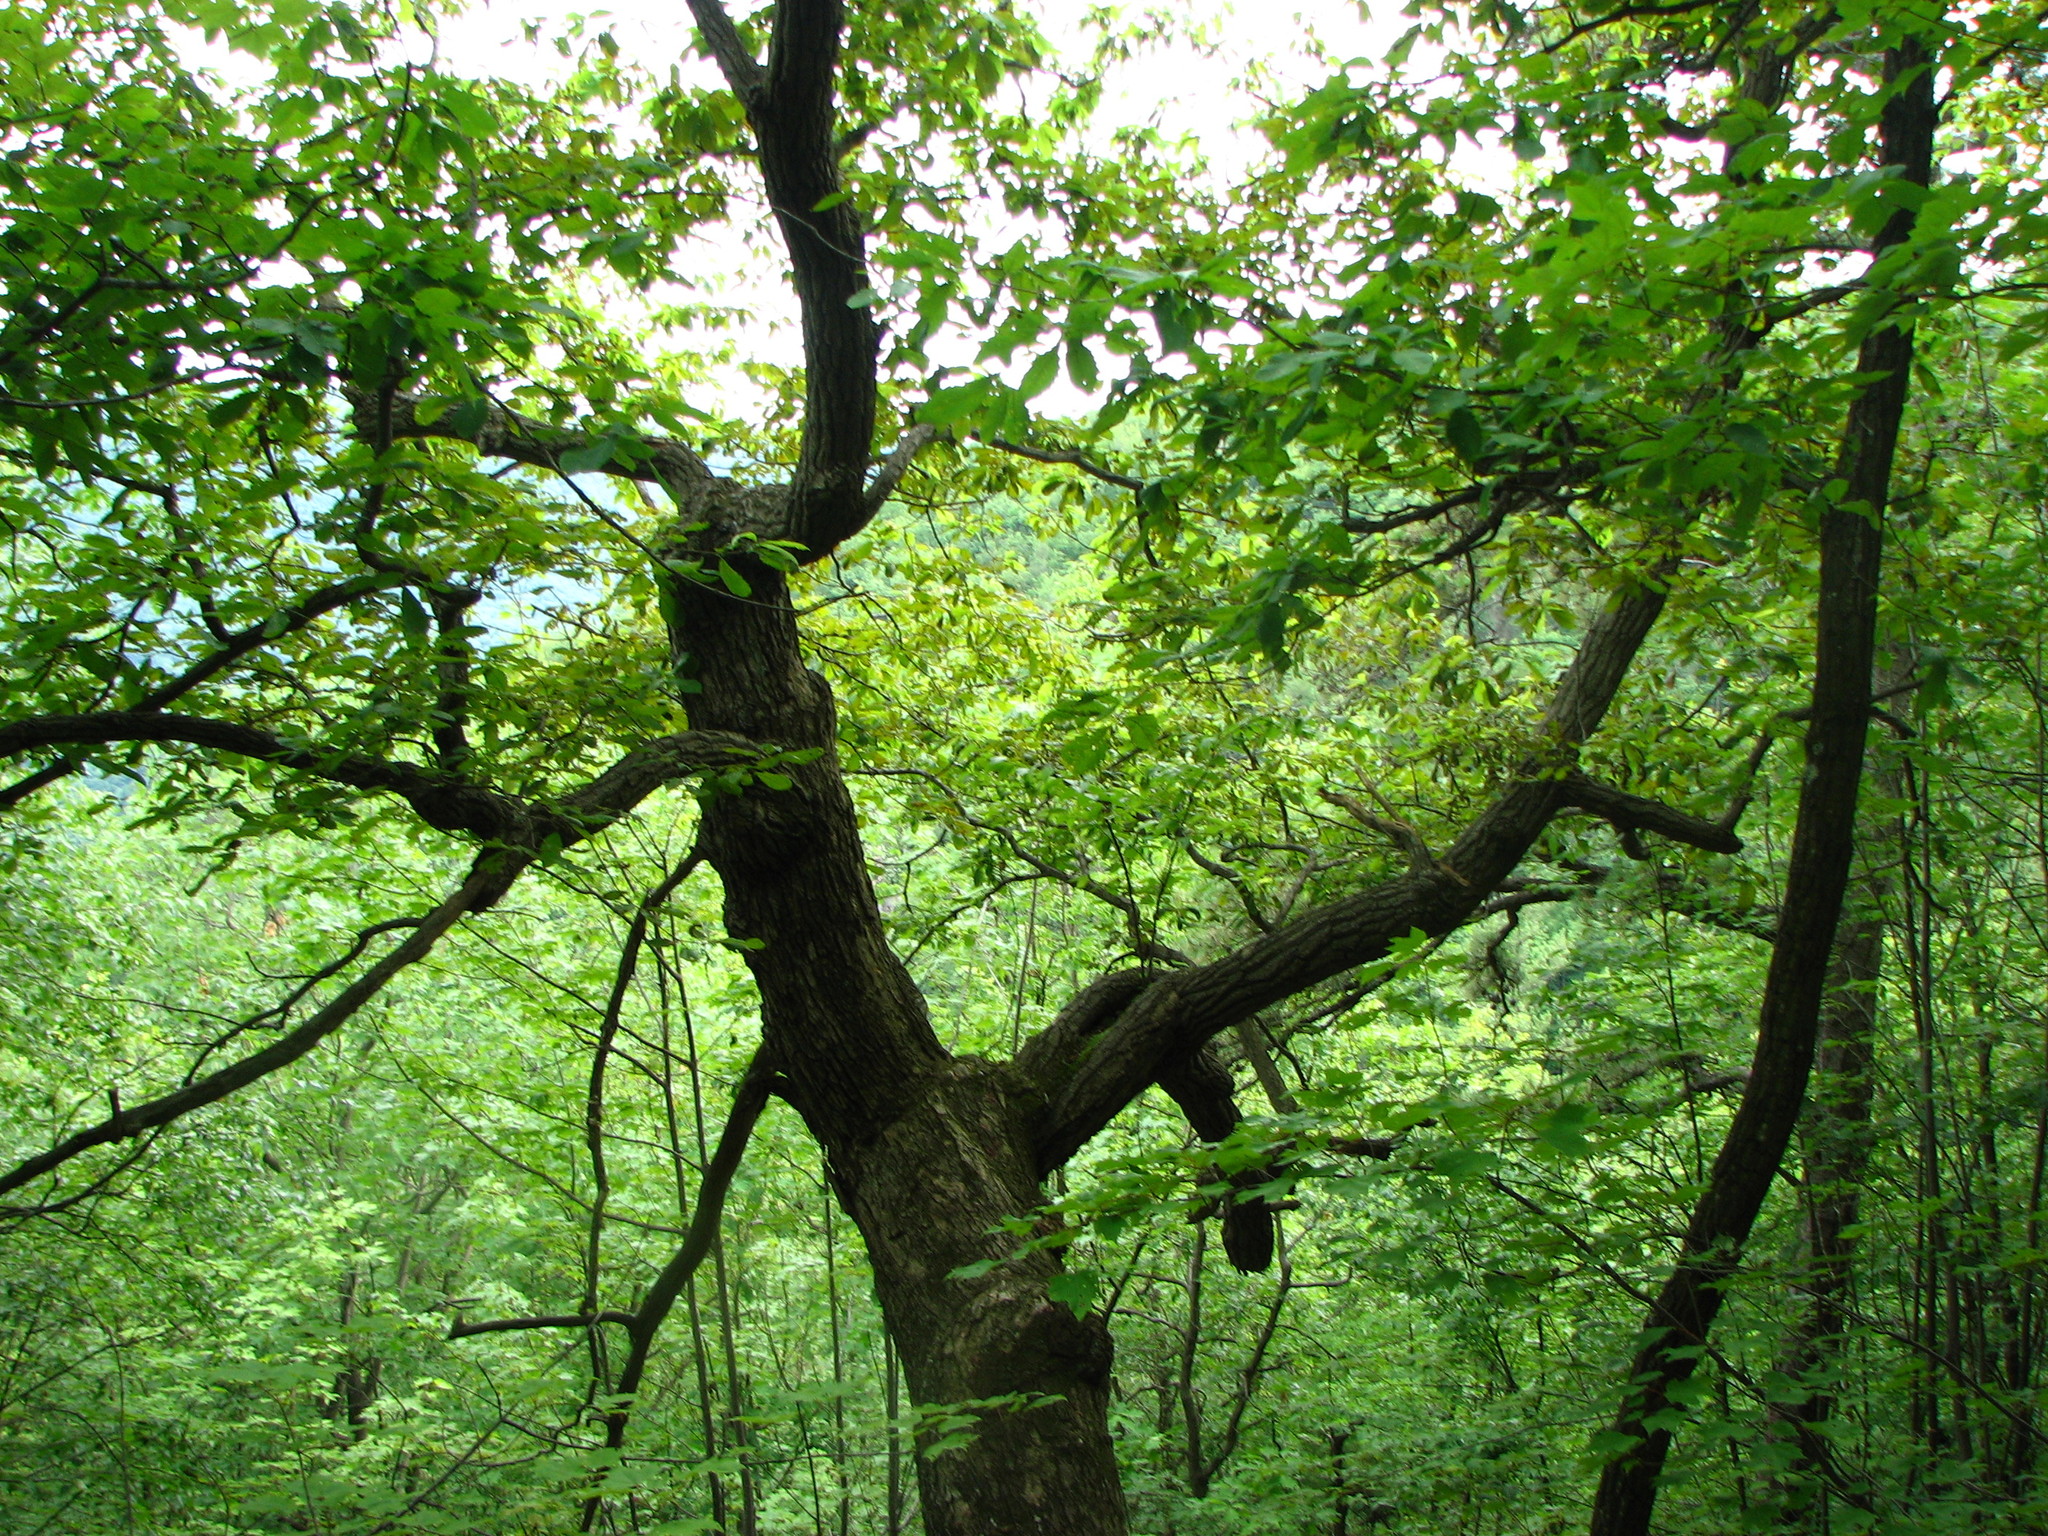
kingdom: Plantae
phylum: Tracheophyta
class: Magnoliopsida
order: Fagales
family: Fagaceae
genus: Quercus
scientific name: Quercus montana
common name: Chestnut oak
